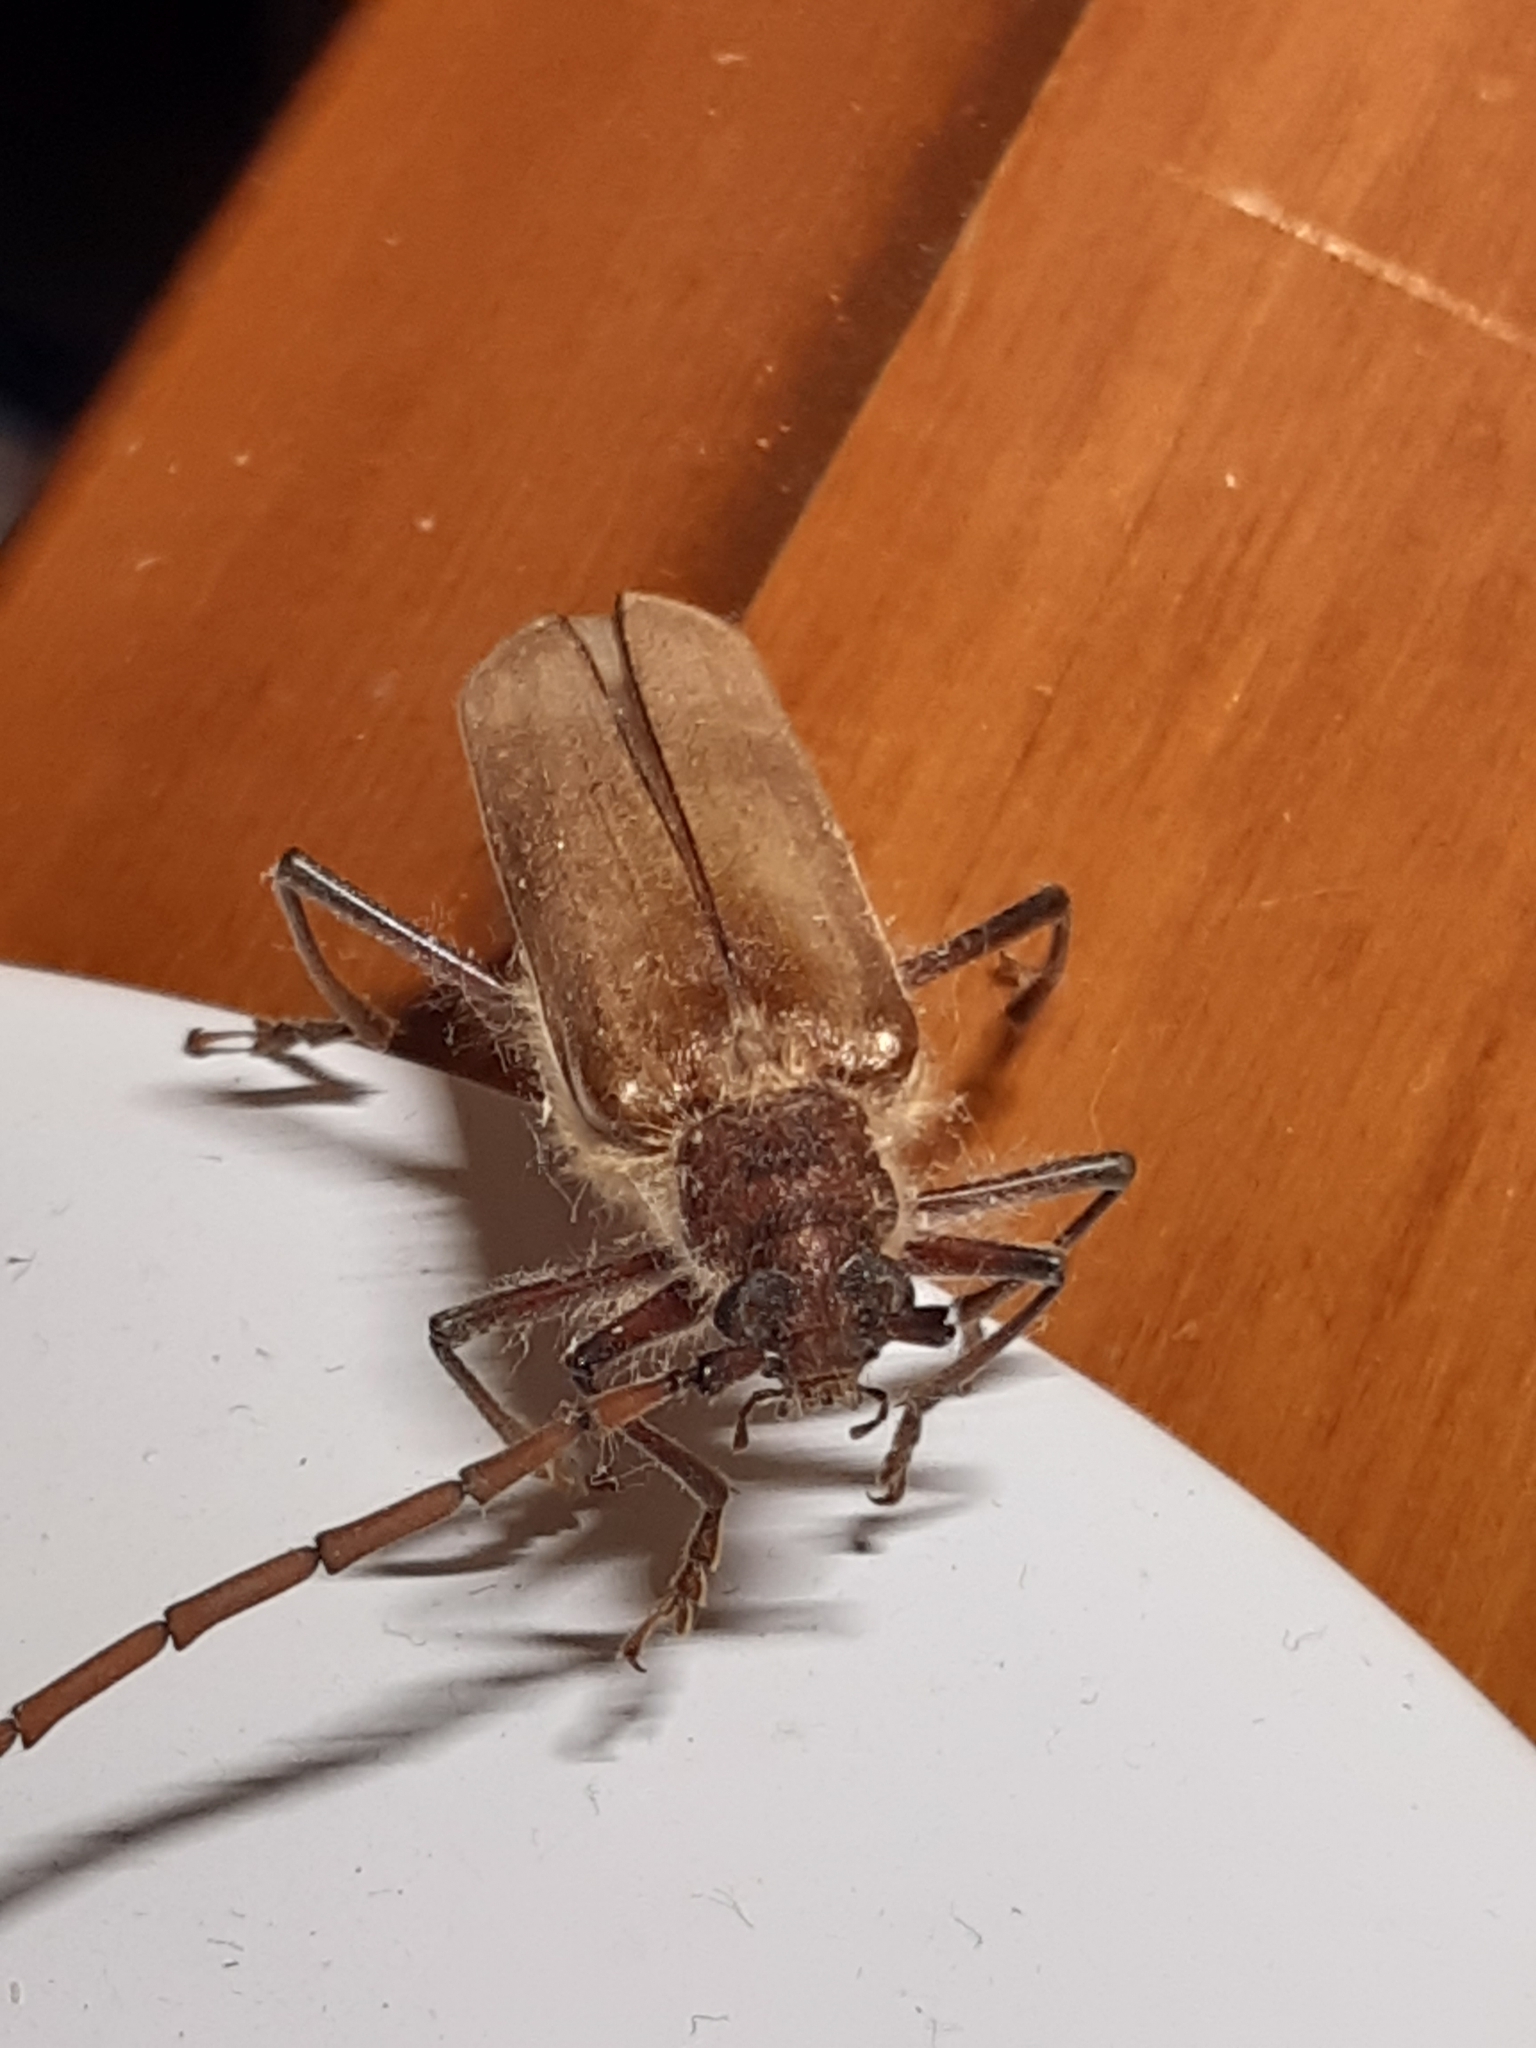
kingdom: Animalia
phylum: Arthropoda
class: Insecta
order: Coleoptera
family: Cerambycidae
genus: Ochrocydus
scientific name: Ochrocydus huttoni
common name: Kanuka longhorn
